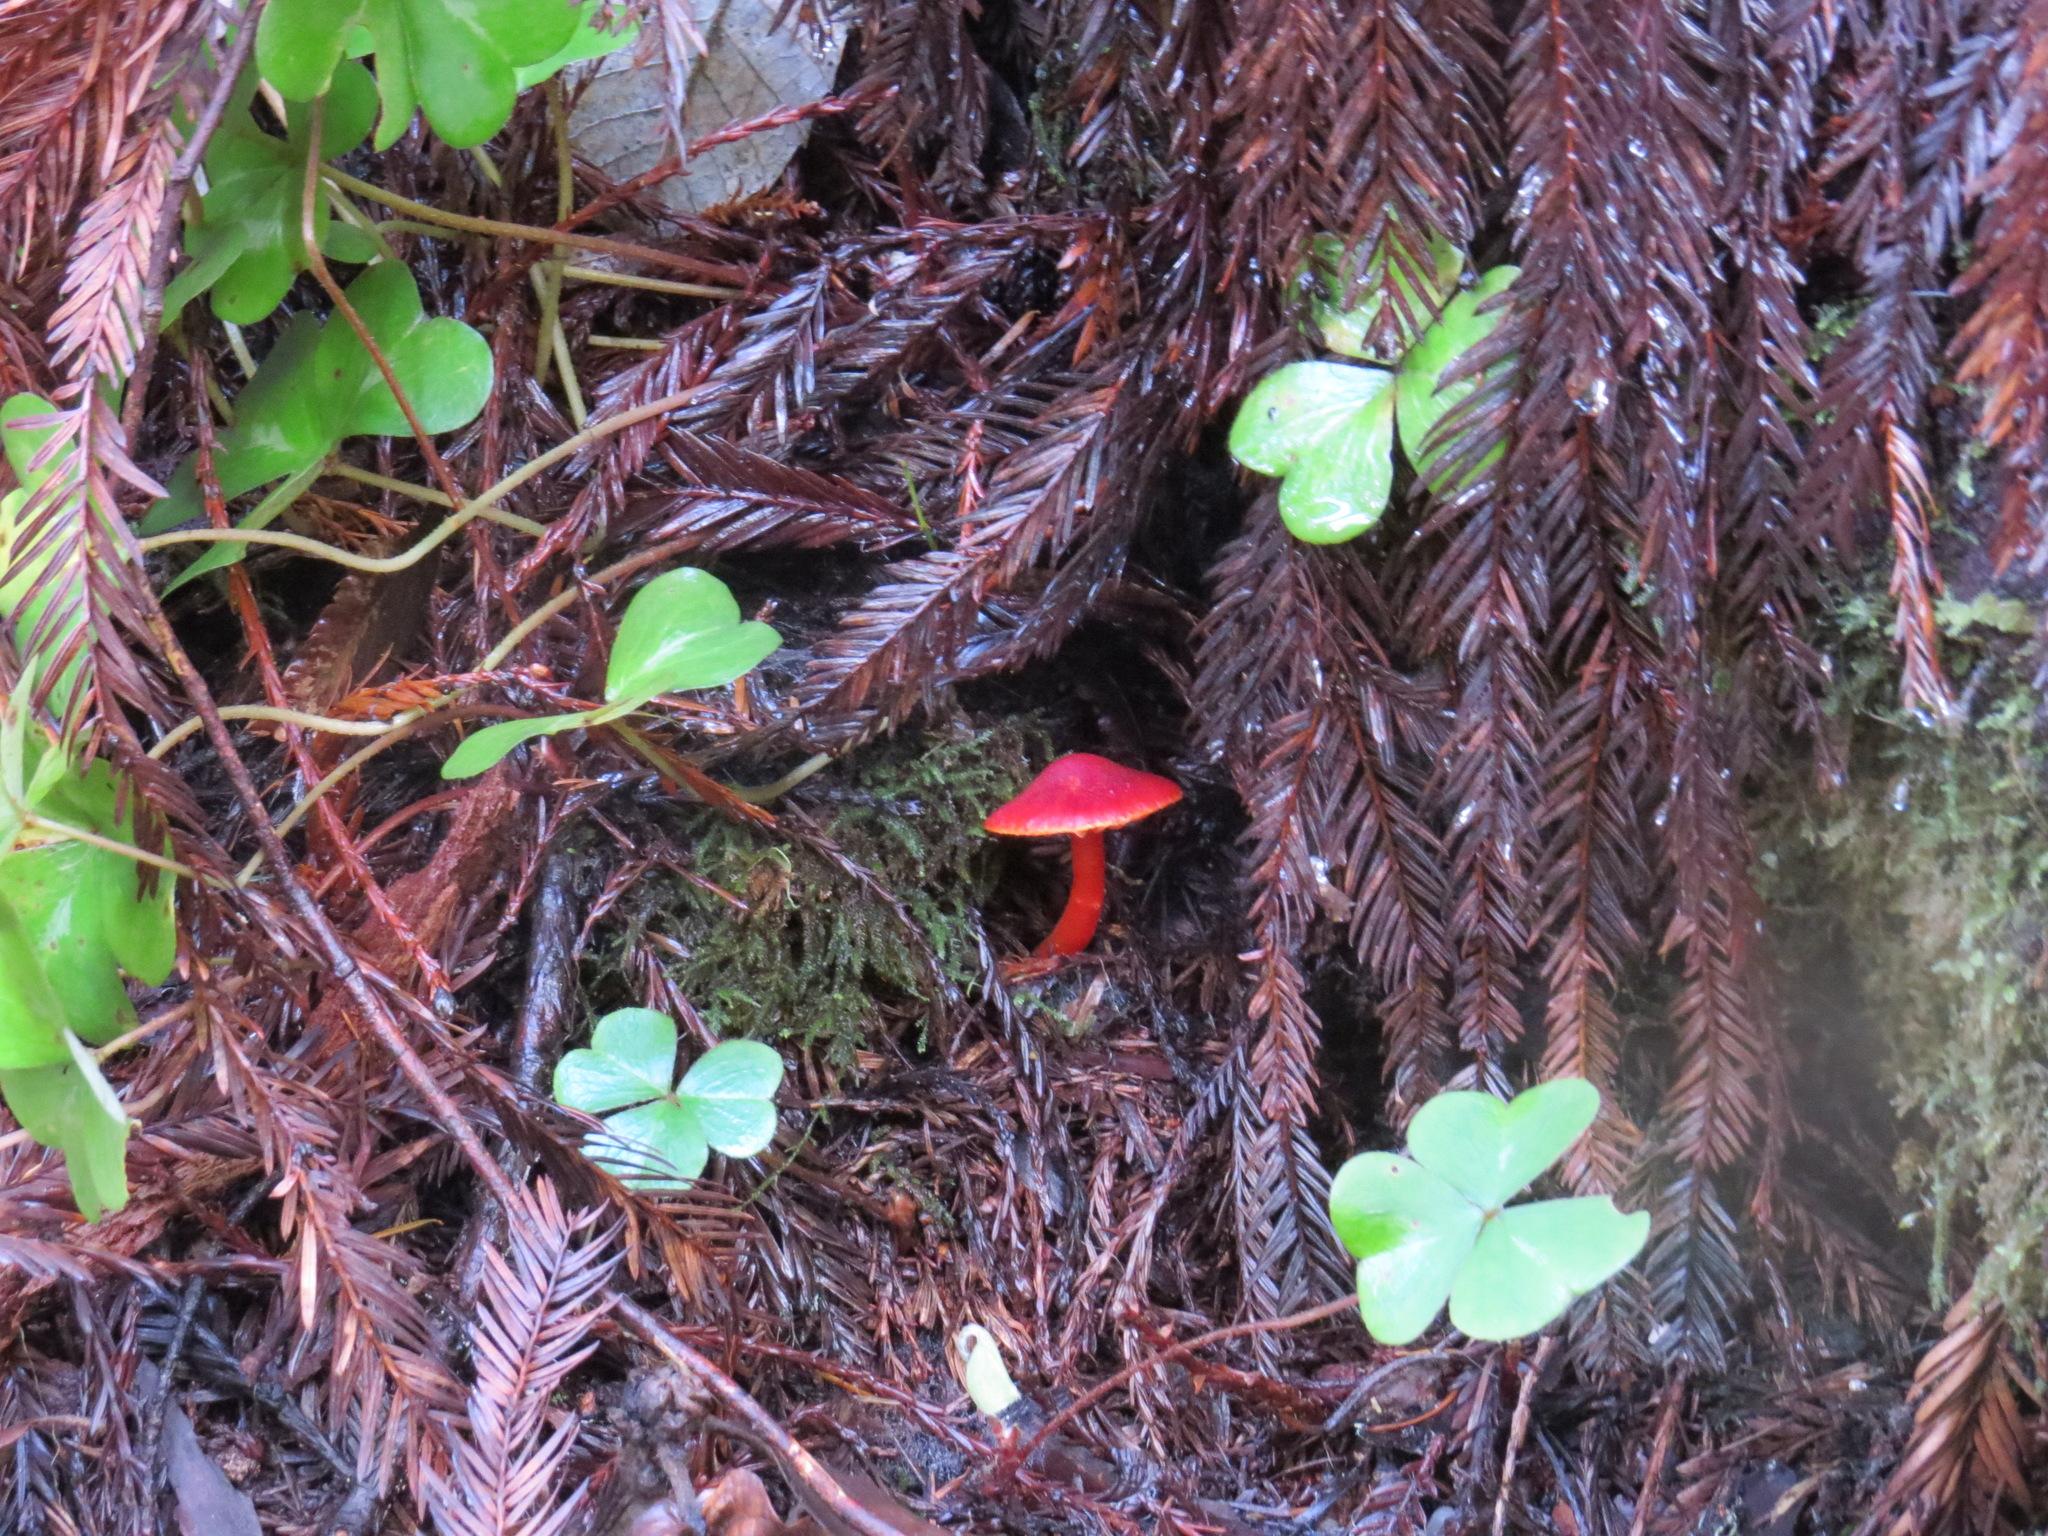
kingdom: Fungi
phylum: Basidiomycota
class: Agaricomycetes
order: Agaricales
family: Hygrophoraceae
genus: Hygrocybe
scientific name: Hygrocybe coccinea
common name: Scarlet hood
